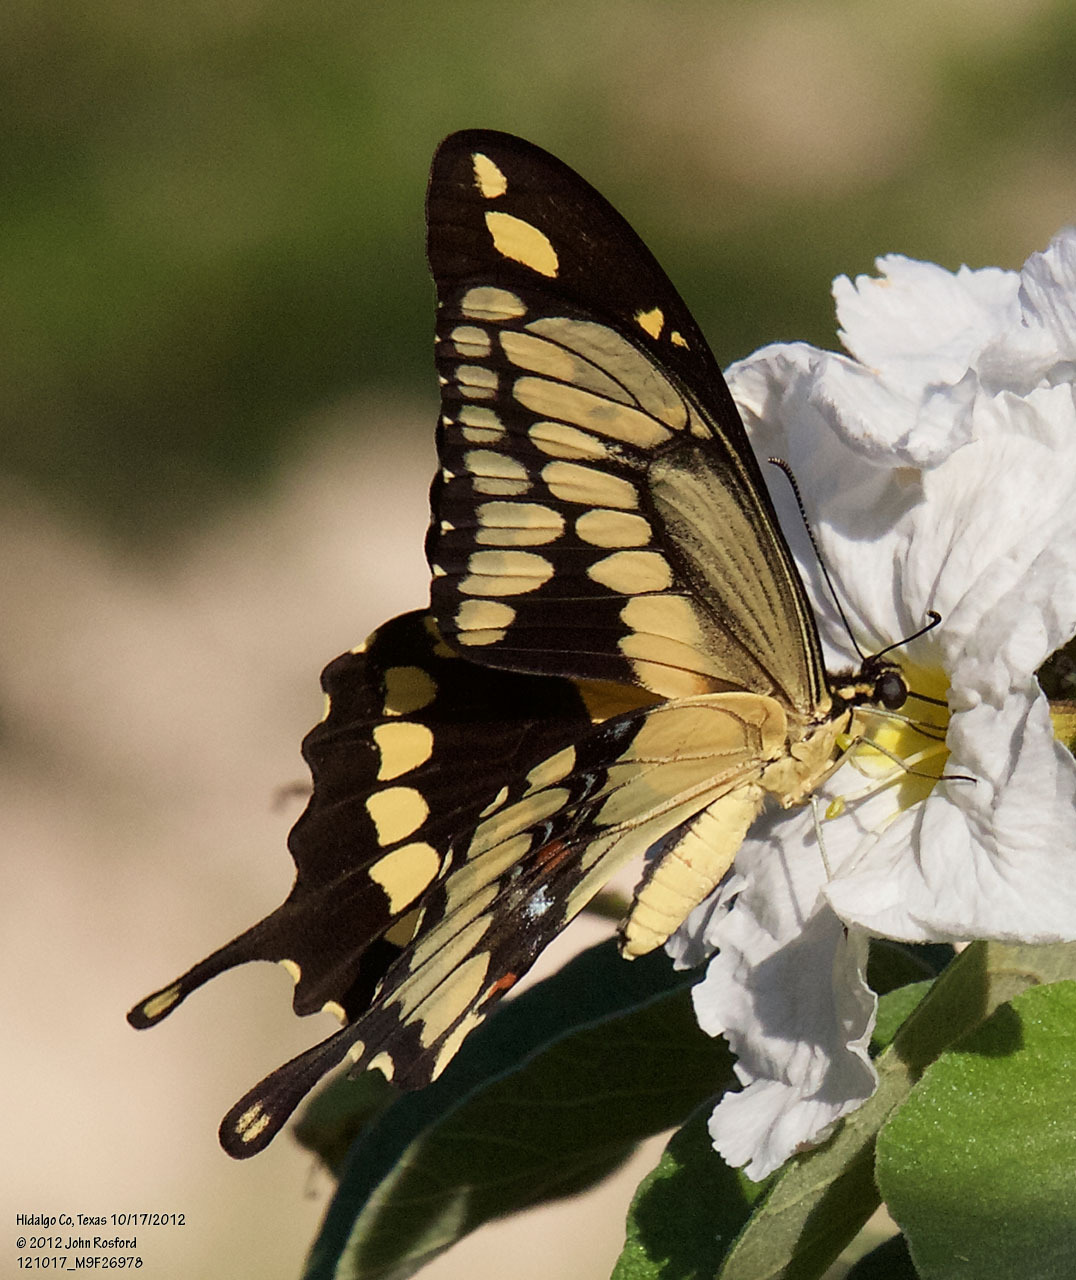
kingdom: Animalia
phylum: Arthropoda
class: Insecta
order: Lepidoptera
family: Papilionidae
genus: Papilio
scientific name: Papilio rumiko
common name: Western giant swallowtail
